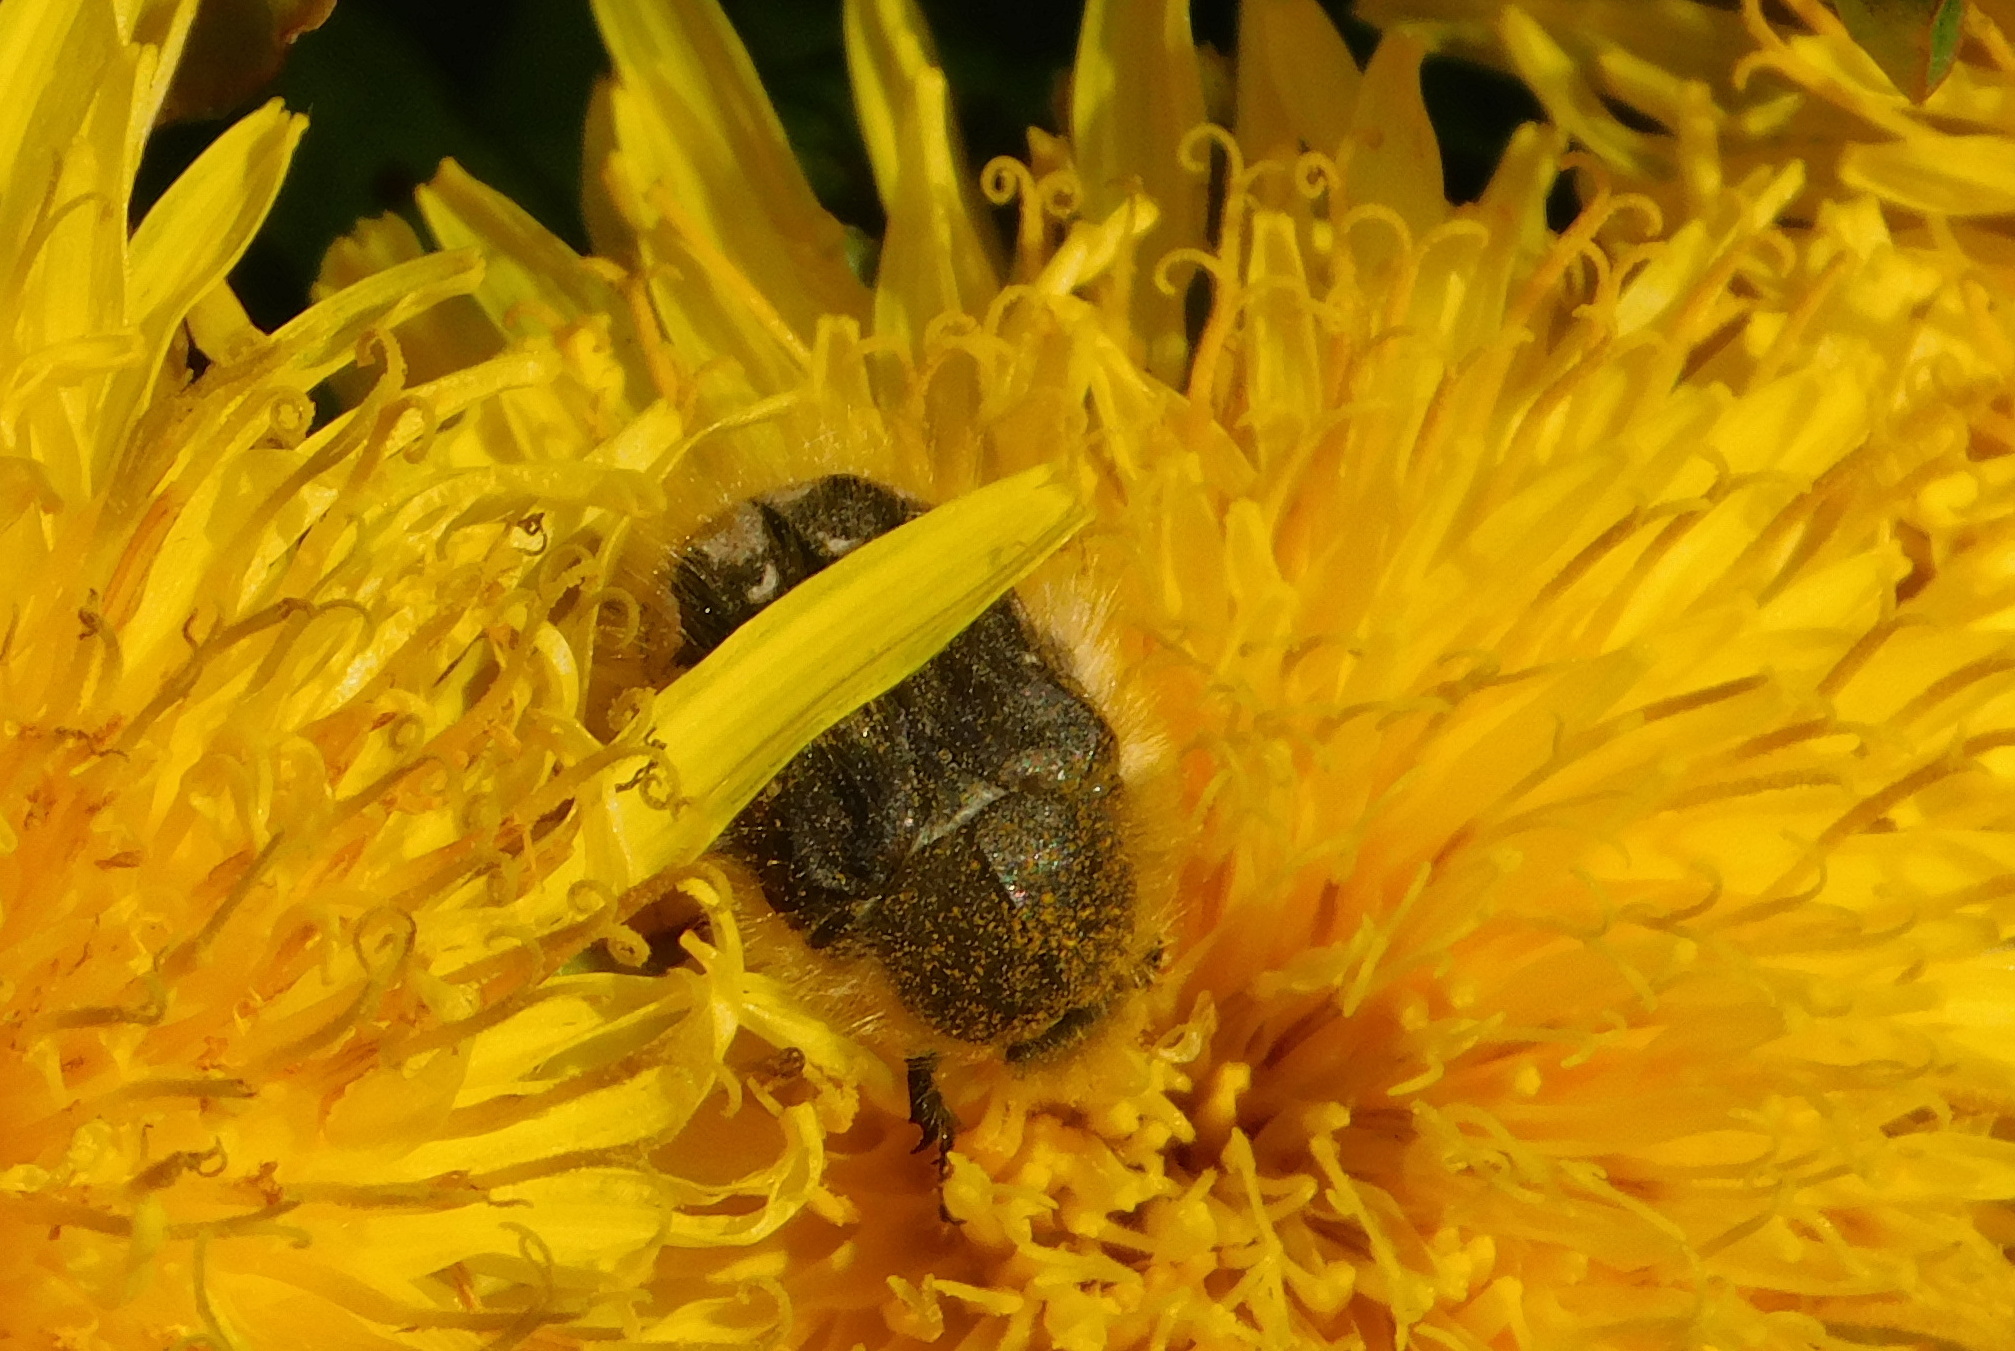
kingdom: Animalia
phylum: Arthropoda
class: Insecta
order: Coleoptera
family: Scarabaeidae
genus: Tropinota
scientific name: Tropinota hirta
